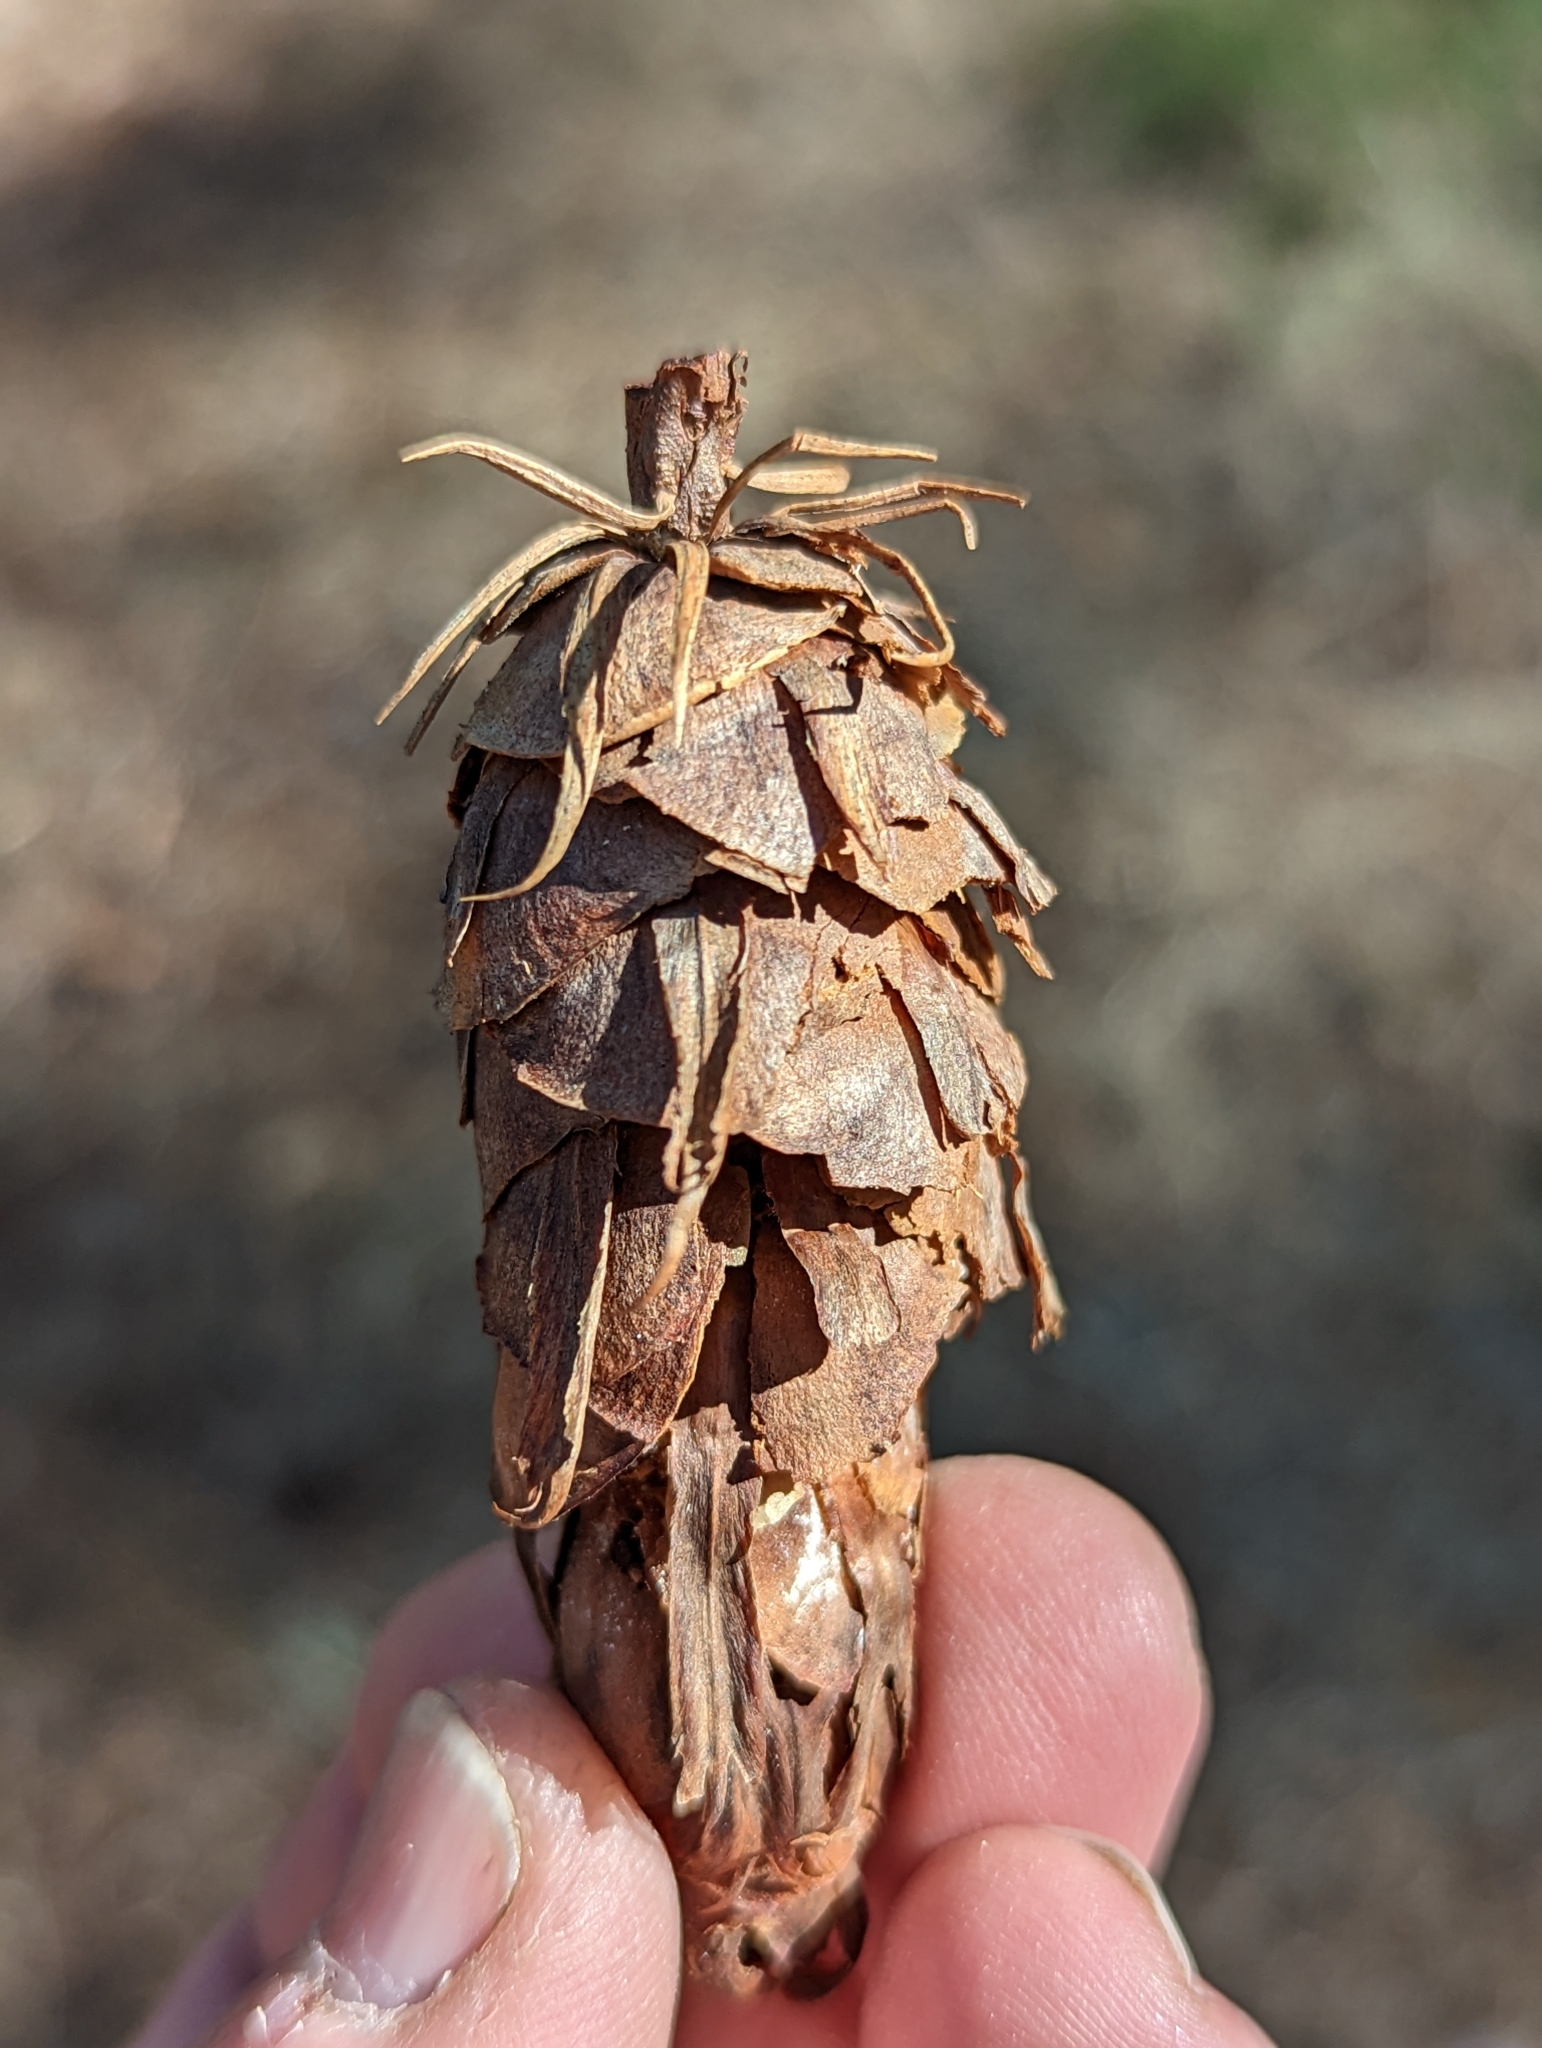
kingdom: Plantae
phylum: Tracheophyta
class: Pinopsida
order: Pinales
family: Pinaceae
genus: Pseudotsuga
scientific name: Pseudotsuga menziesii
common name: Douglas fir
